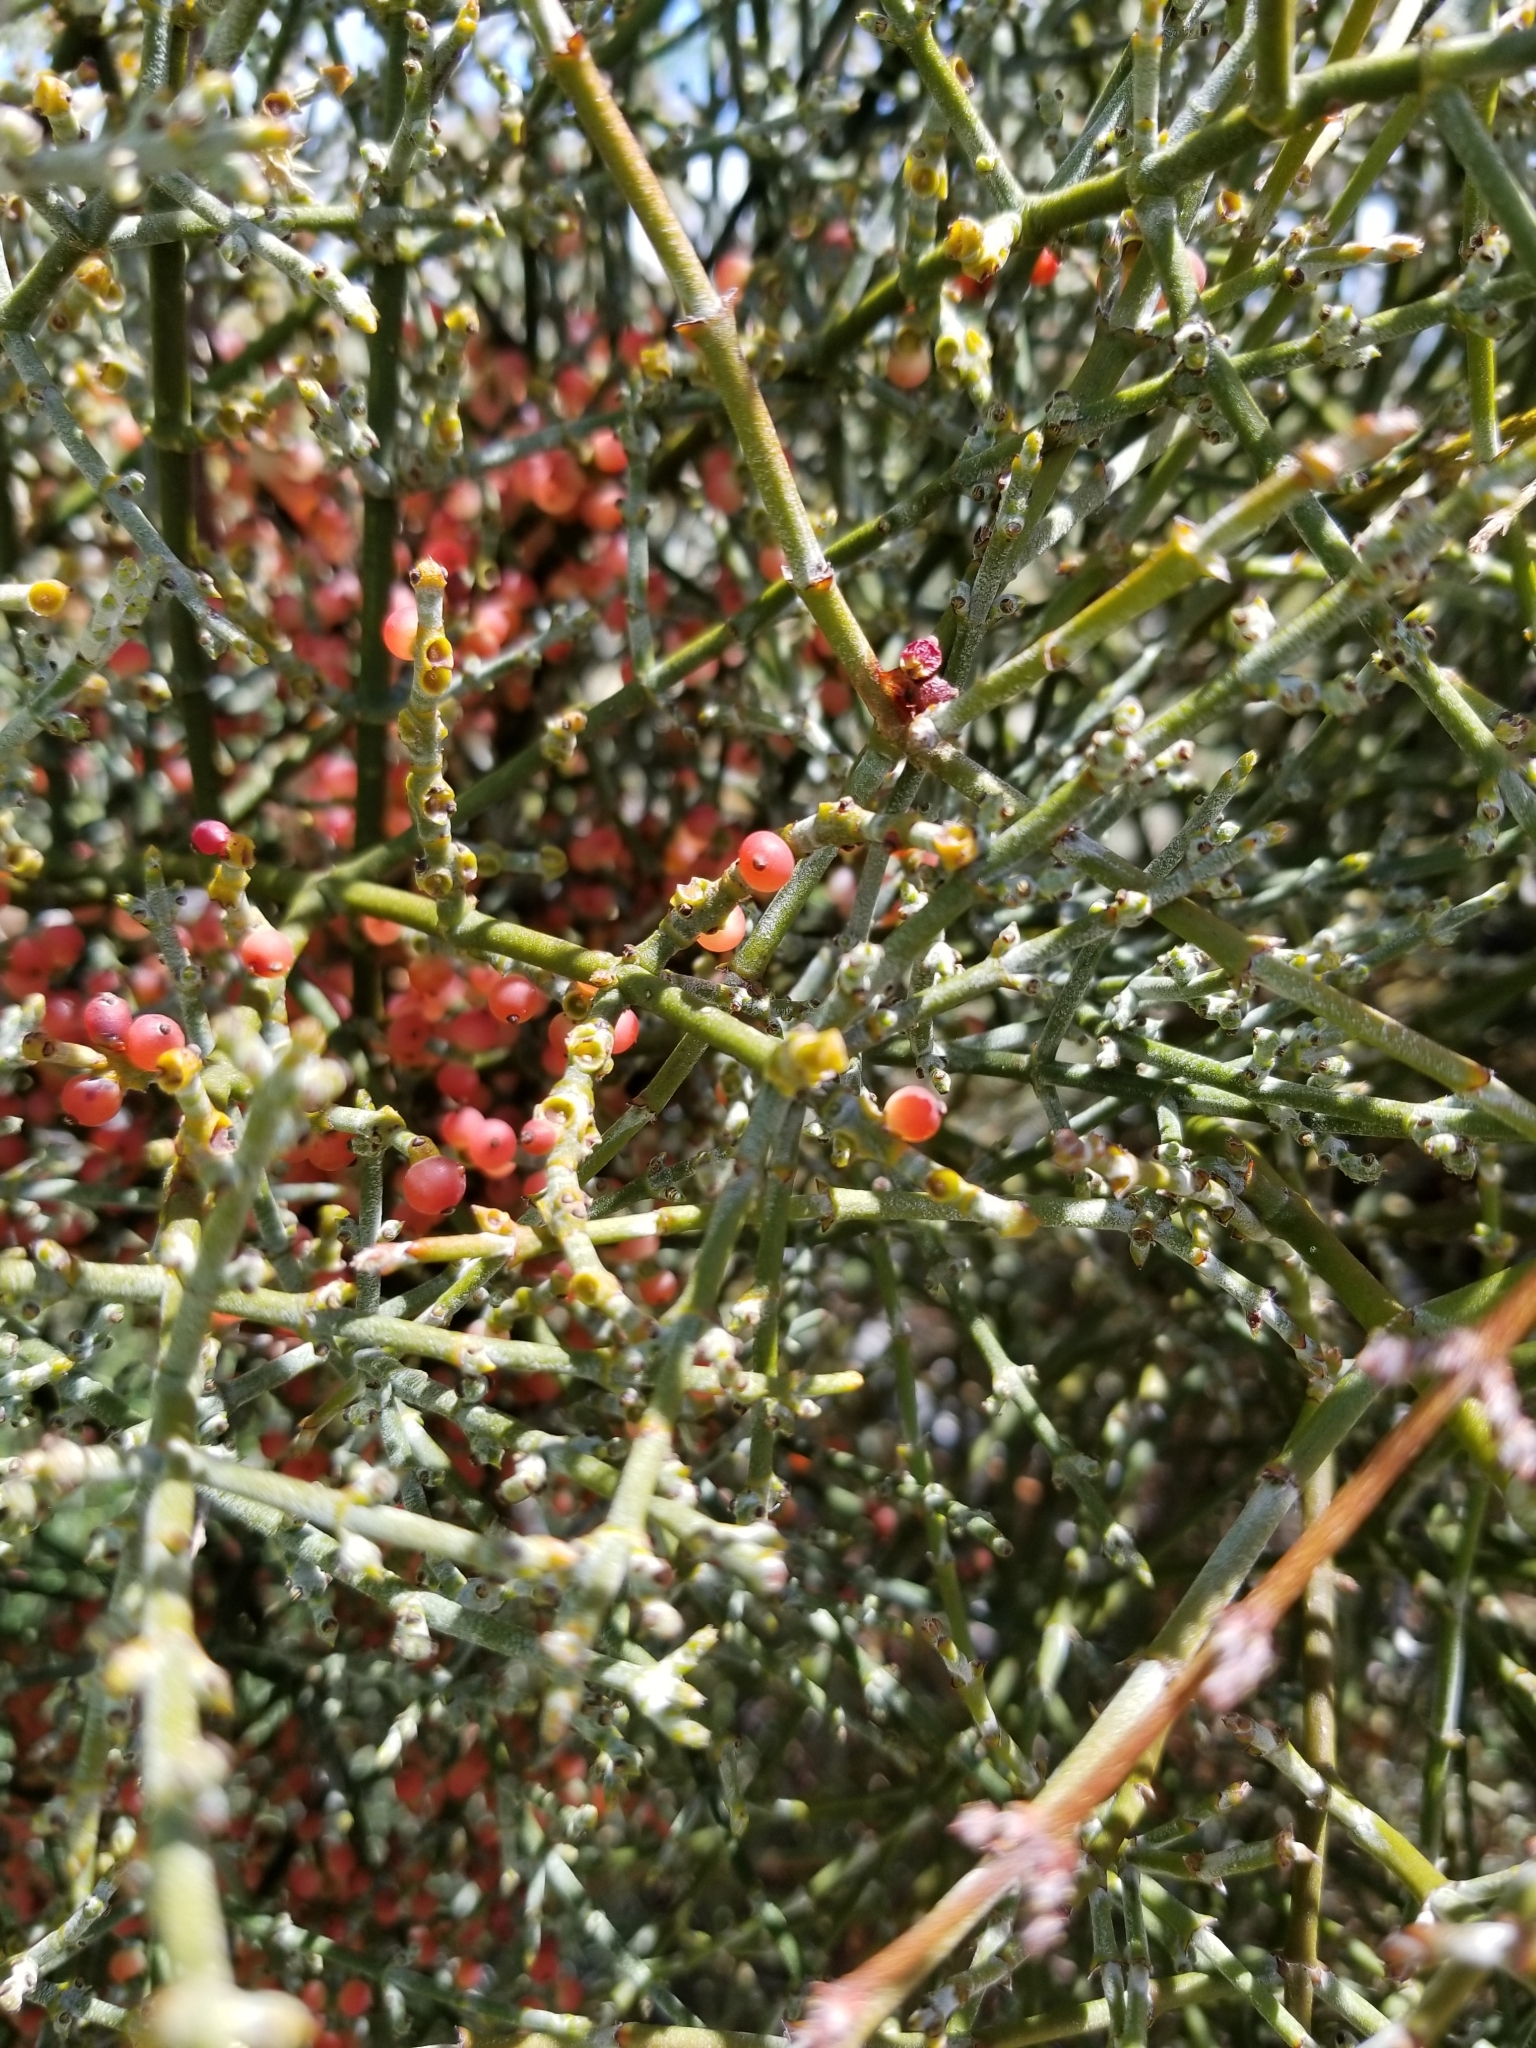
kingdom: Plantae
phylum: Tracheophyta
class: Magnoliopsida
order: Santalales
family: Viscaceae
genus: Phoradendron
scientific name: Phoradendron californicum
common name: Acacia mistletoe
